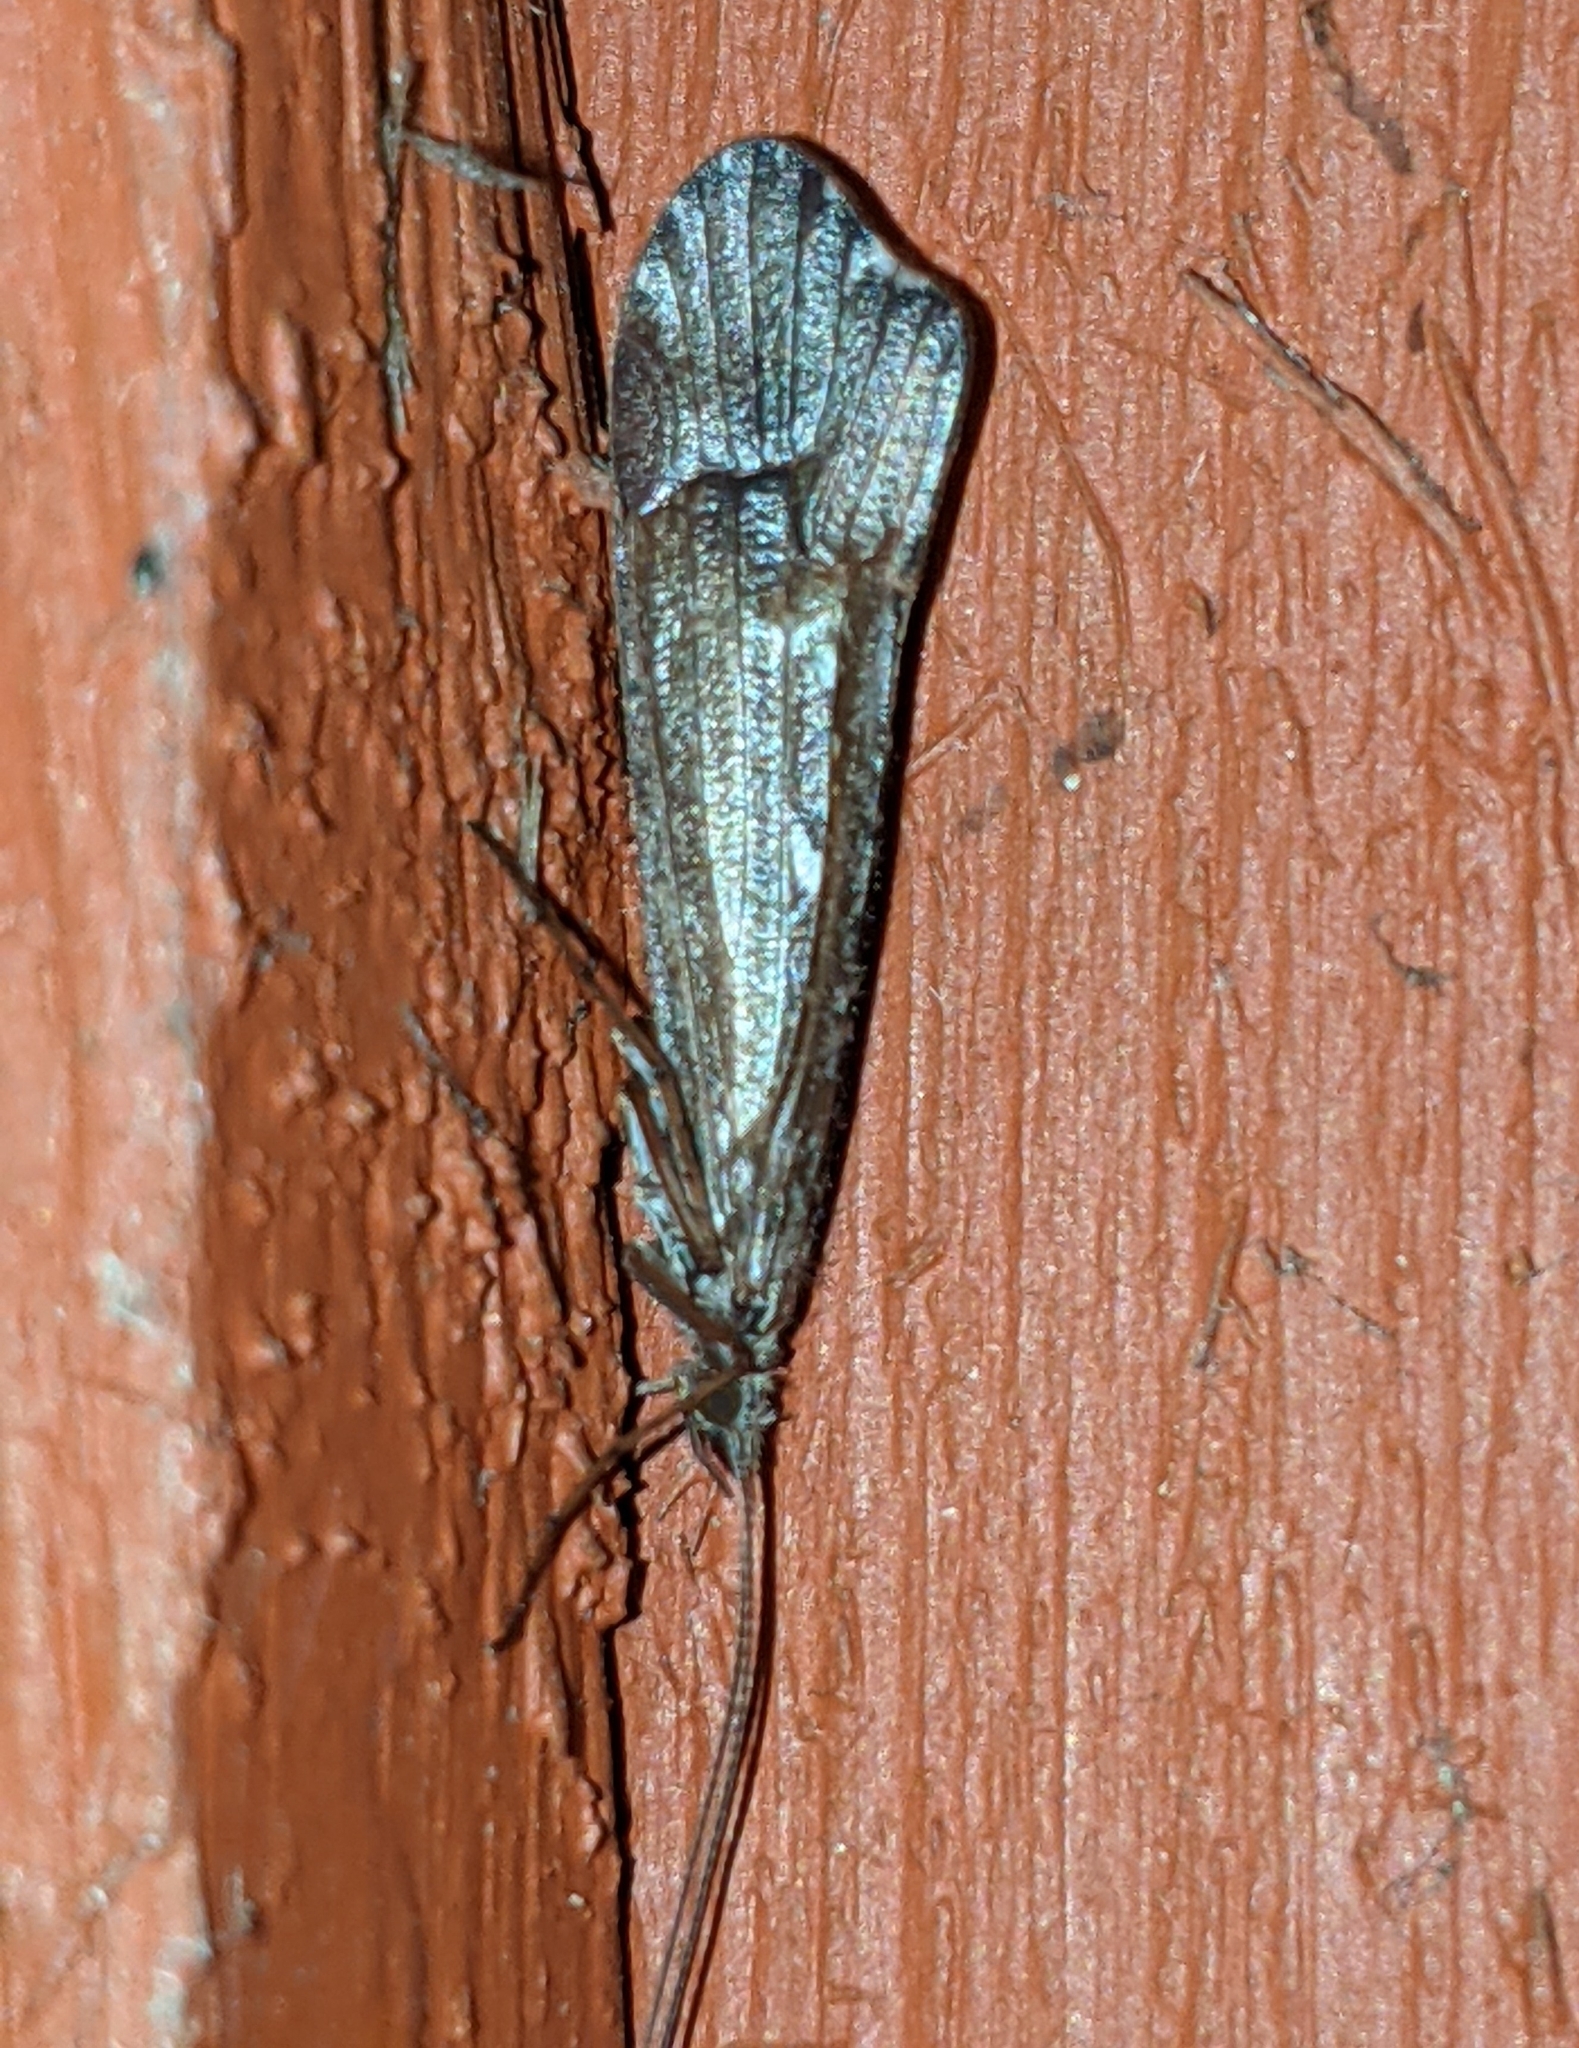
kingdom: Animalia
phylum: Arthropoda
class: Insecta
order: Trichoptera
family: Limnephilidae
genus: Glyphopsyche
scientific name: Glyphopsyche irrorata
